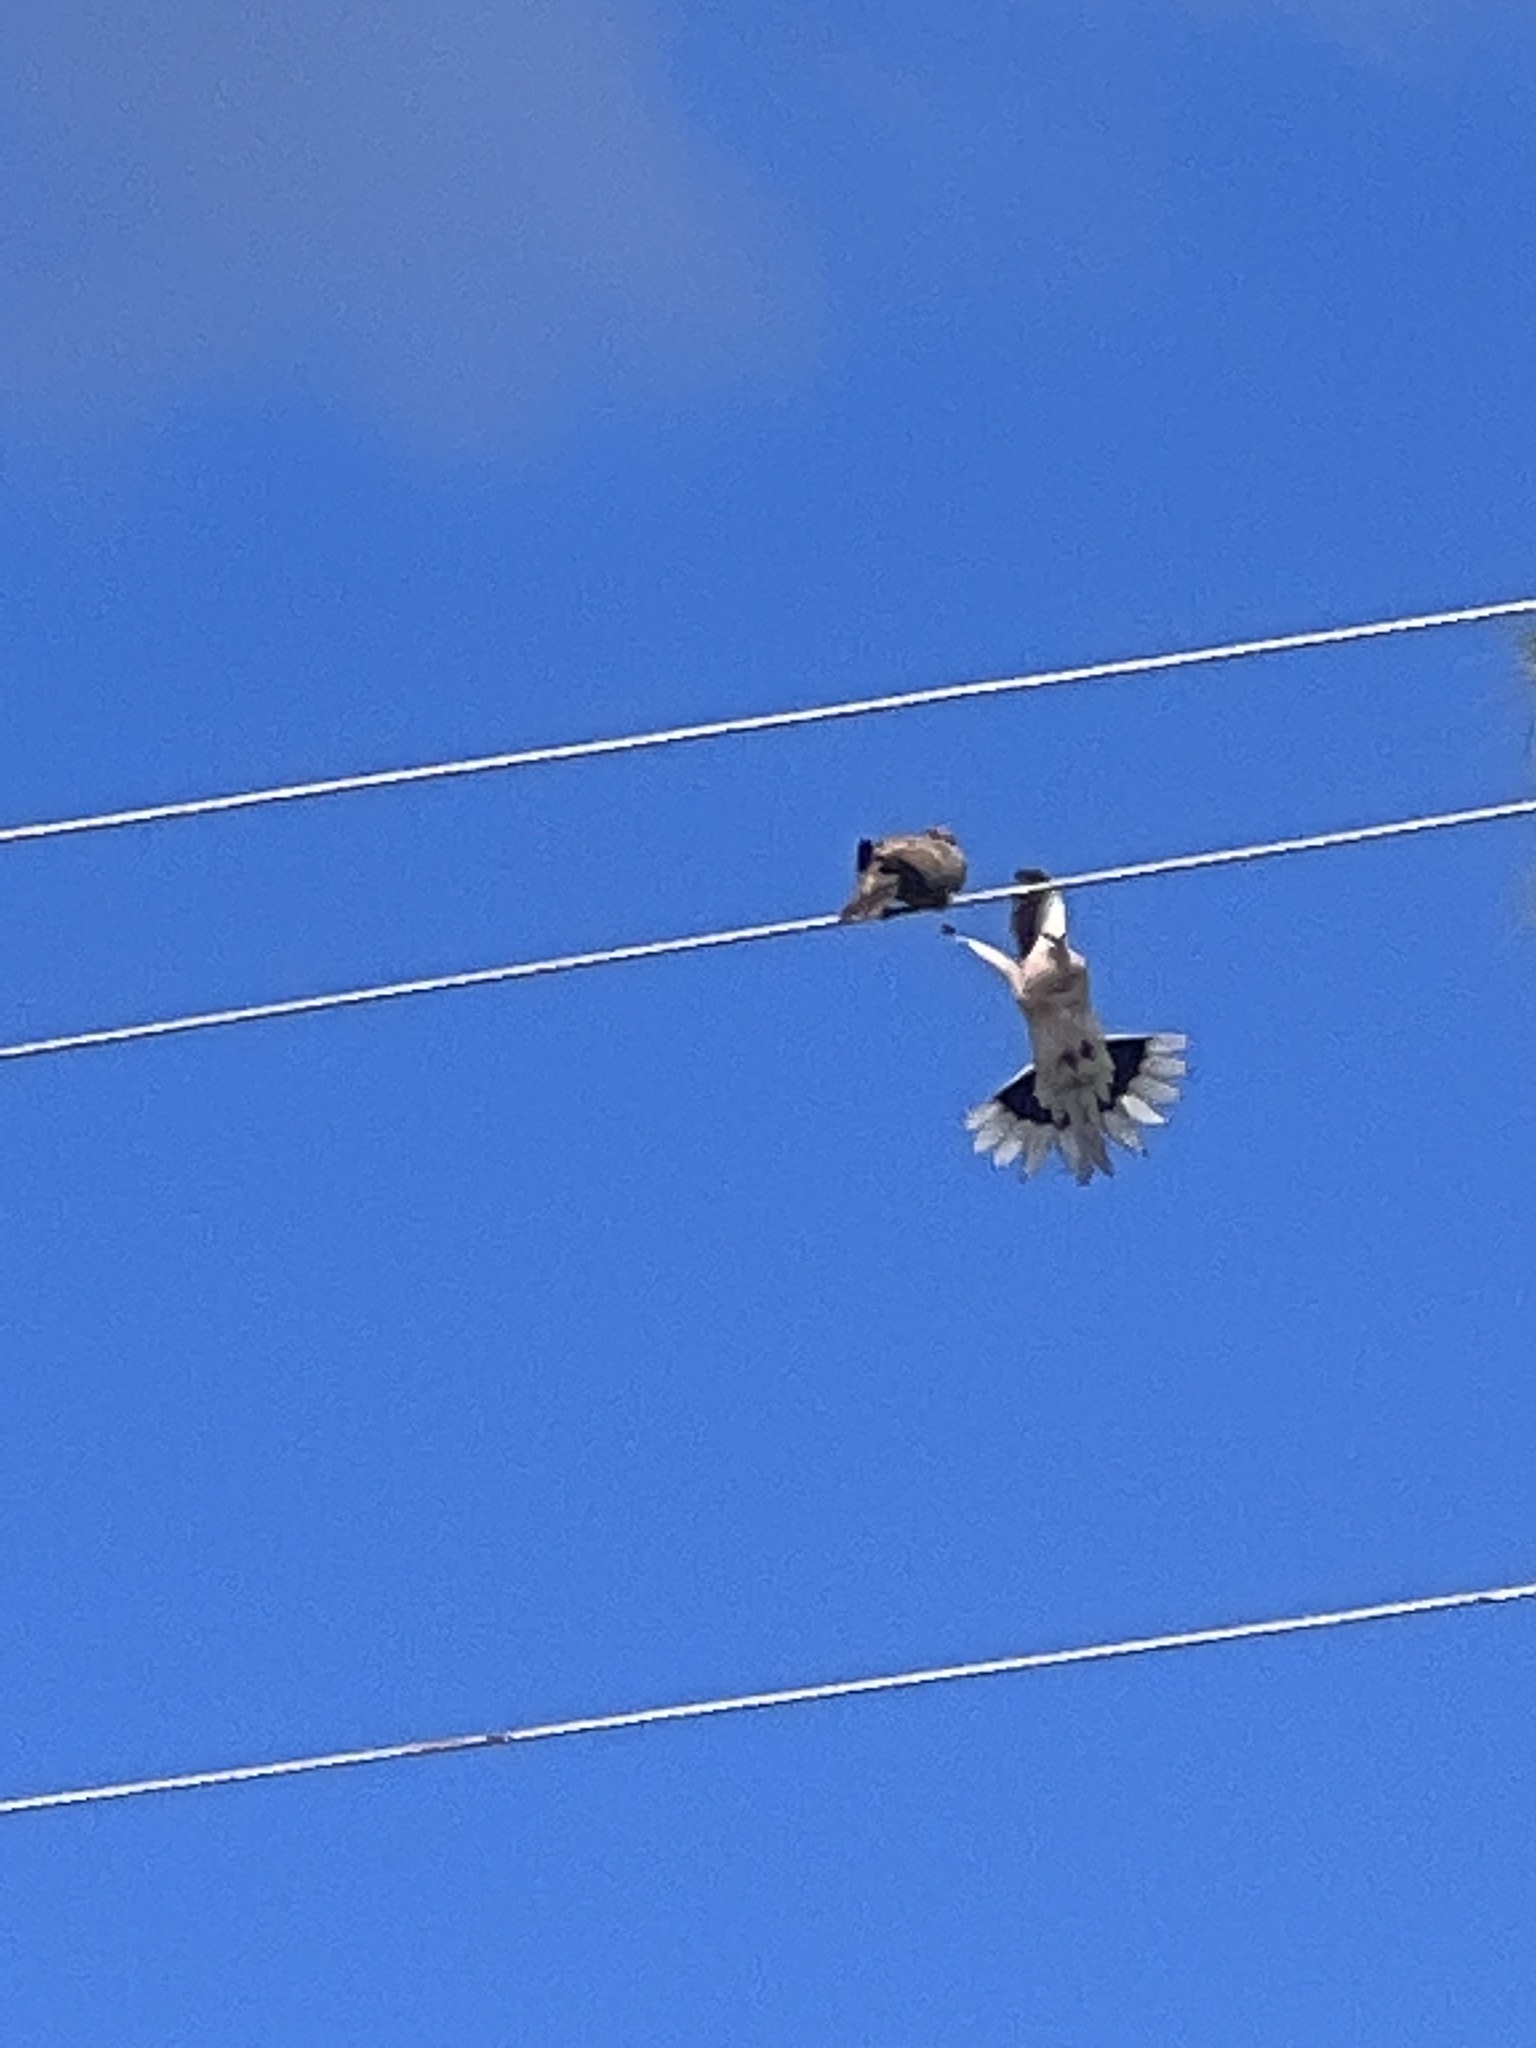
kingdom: Animalia
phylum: Chordata
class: Aves
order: Columbiformes
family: Columbidae
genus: Streptopelia
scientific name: Streptopelia decaocto
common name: Eurasian collared dove
